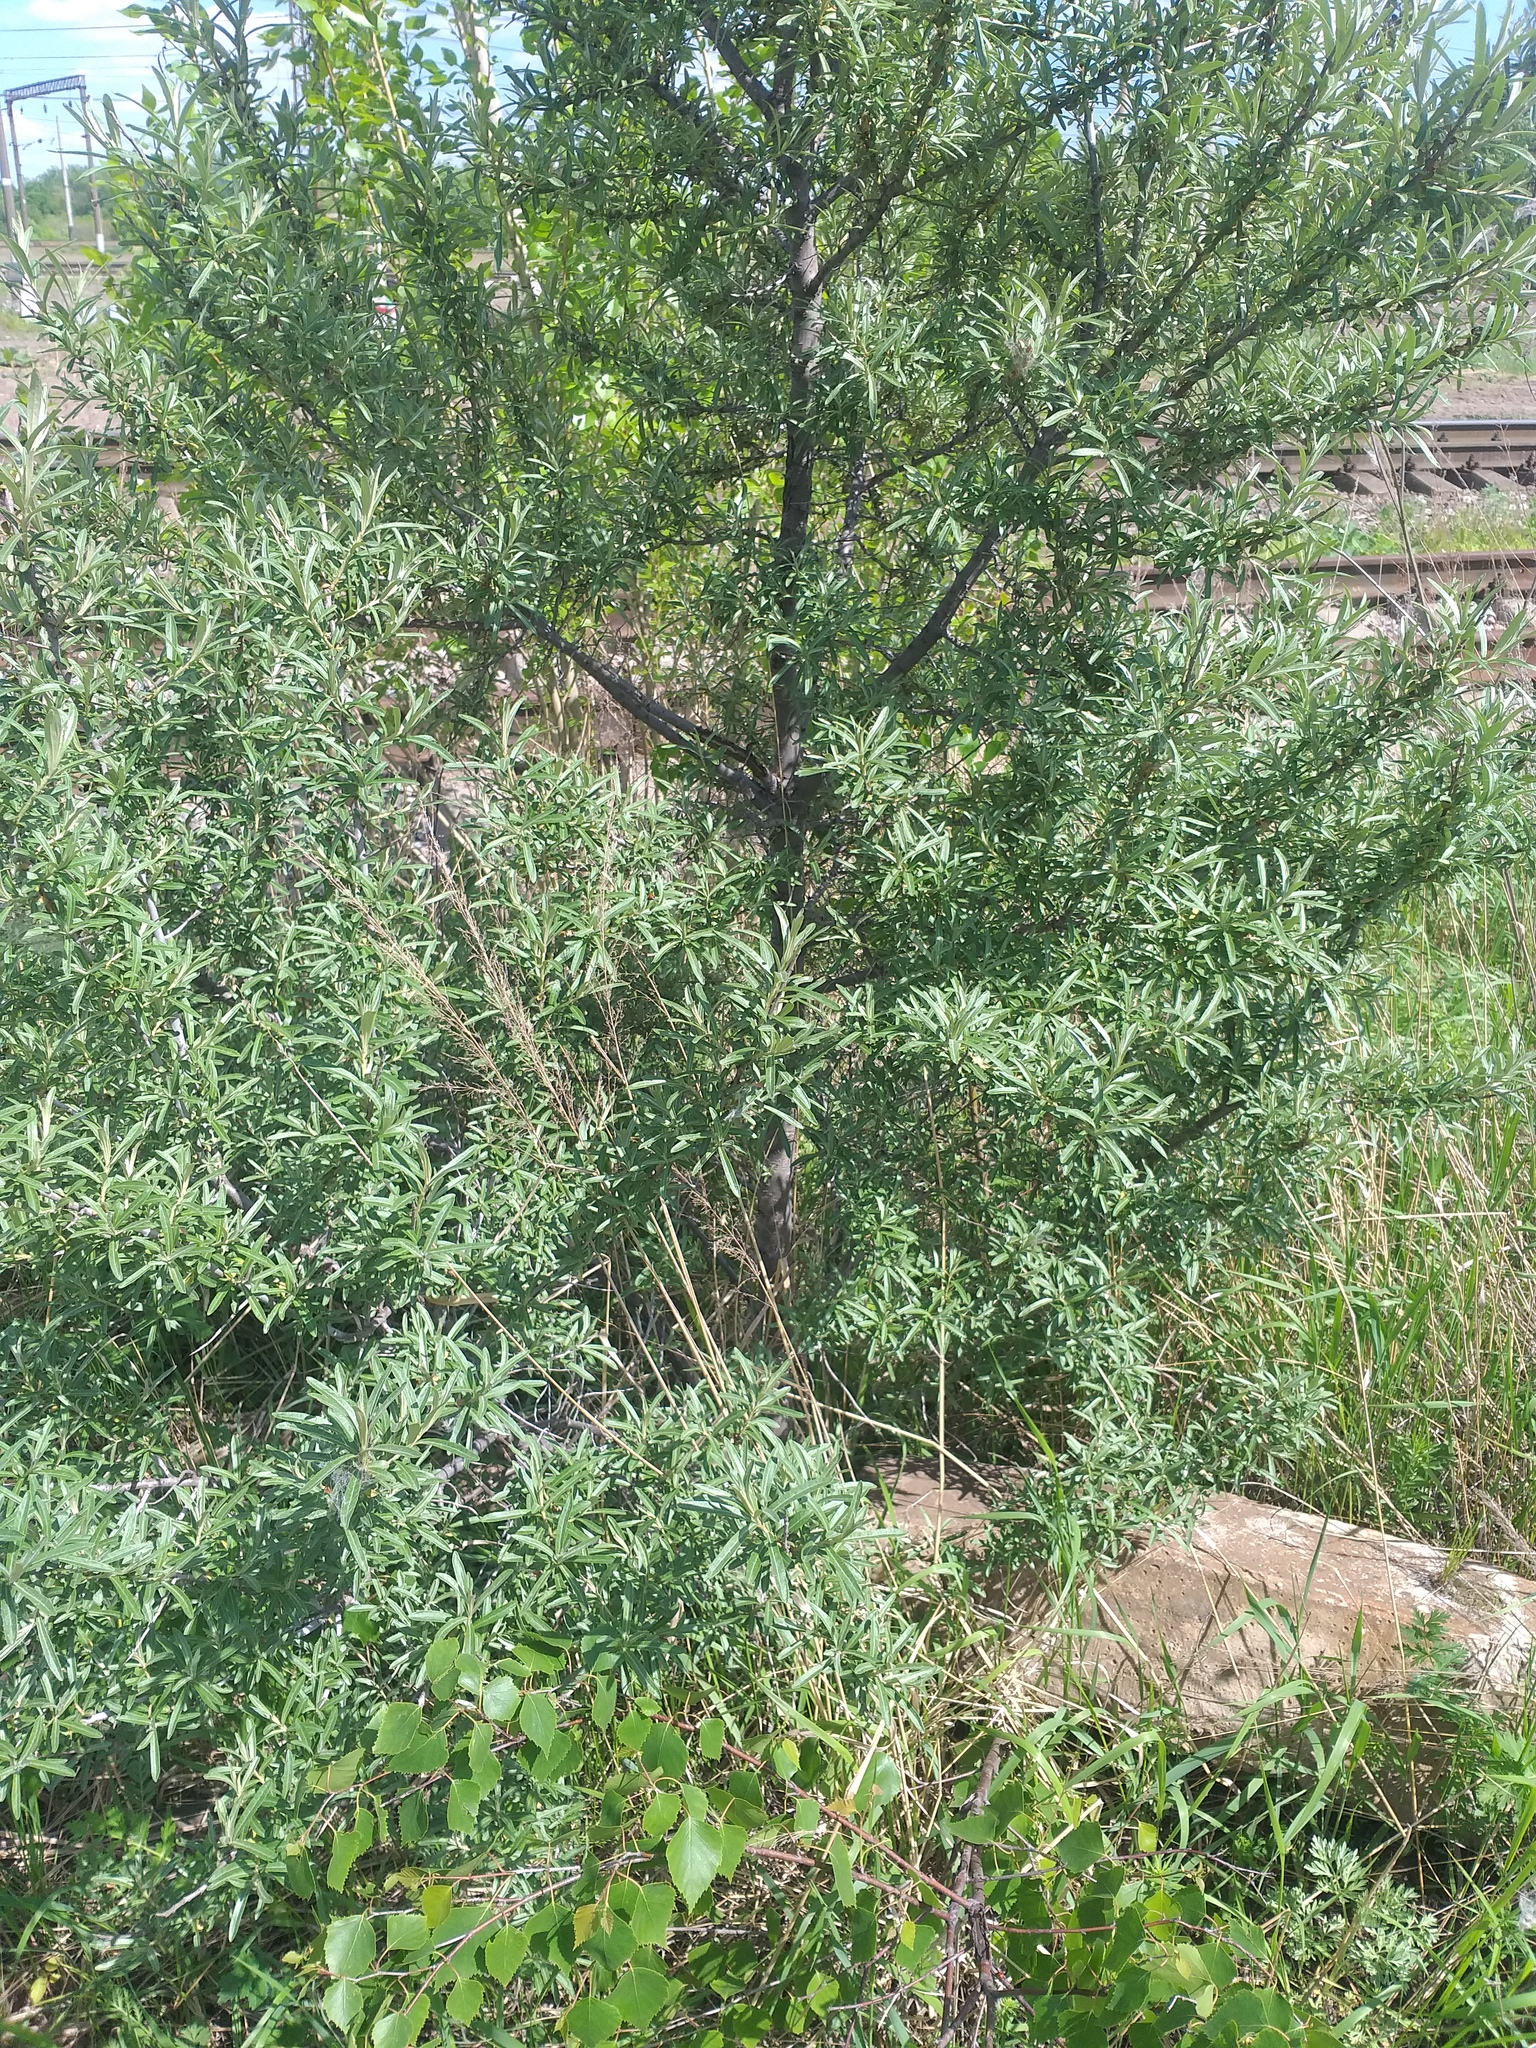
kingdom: Plantae
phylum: Tracheophyta
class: Magnoliopsida
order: Rosales
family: Elaeagnaceae
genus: Hippophae
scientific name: Hippophae rhamnoides
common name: Sea-buckthorn
